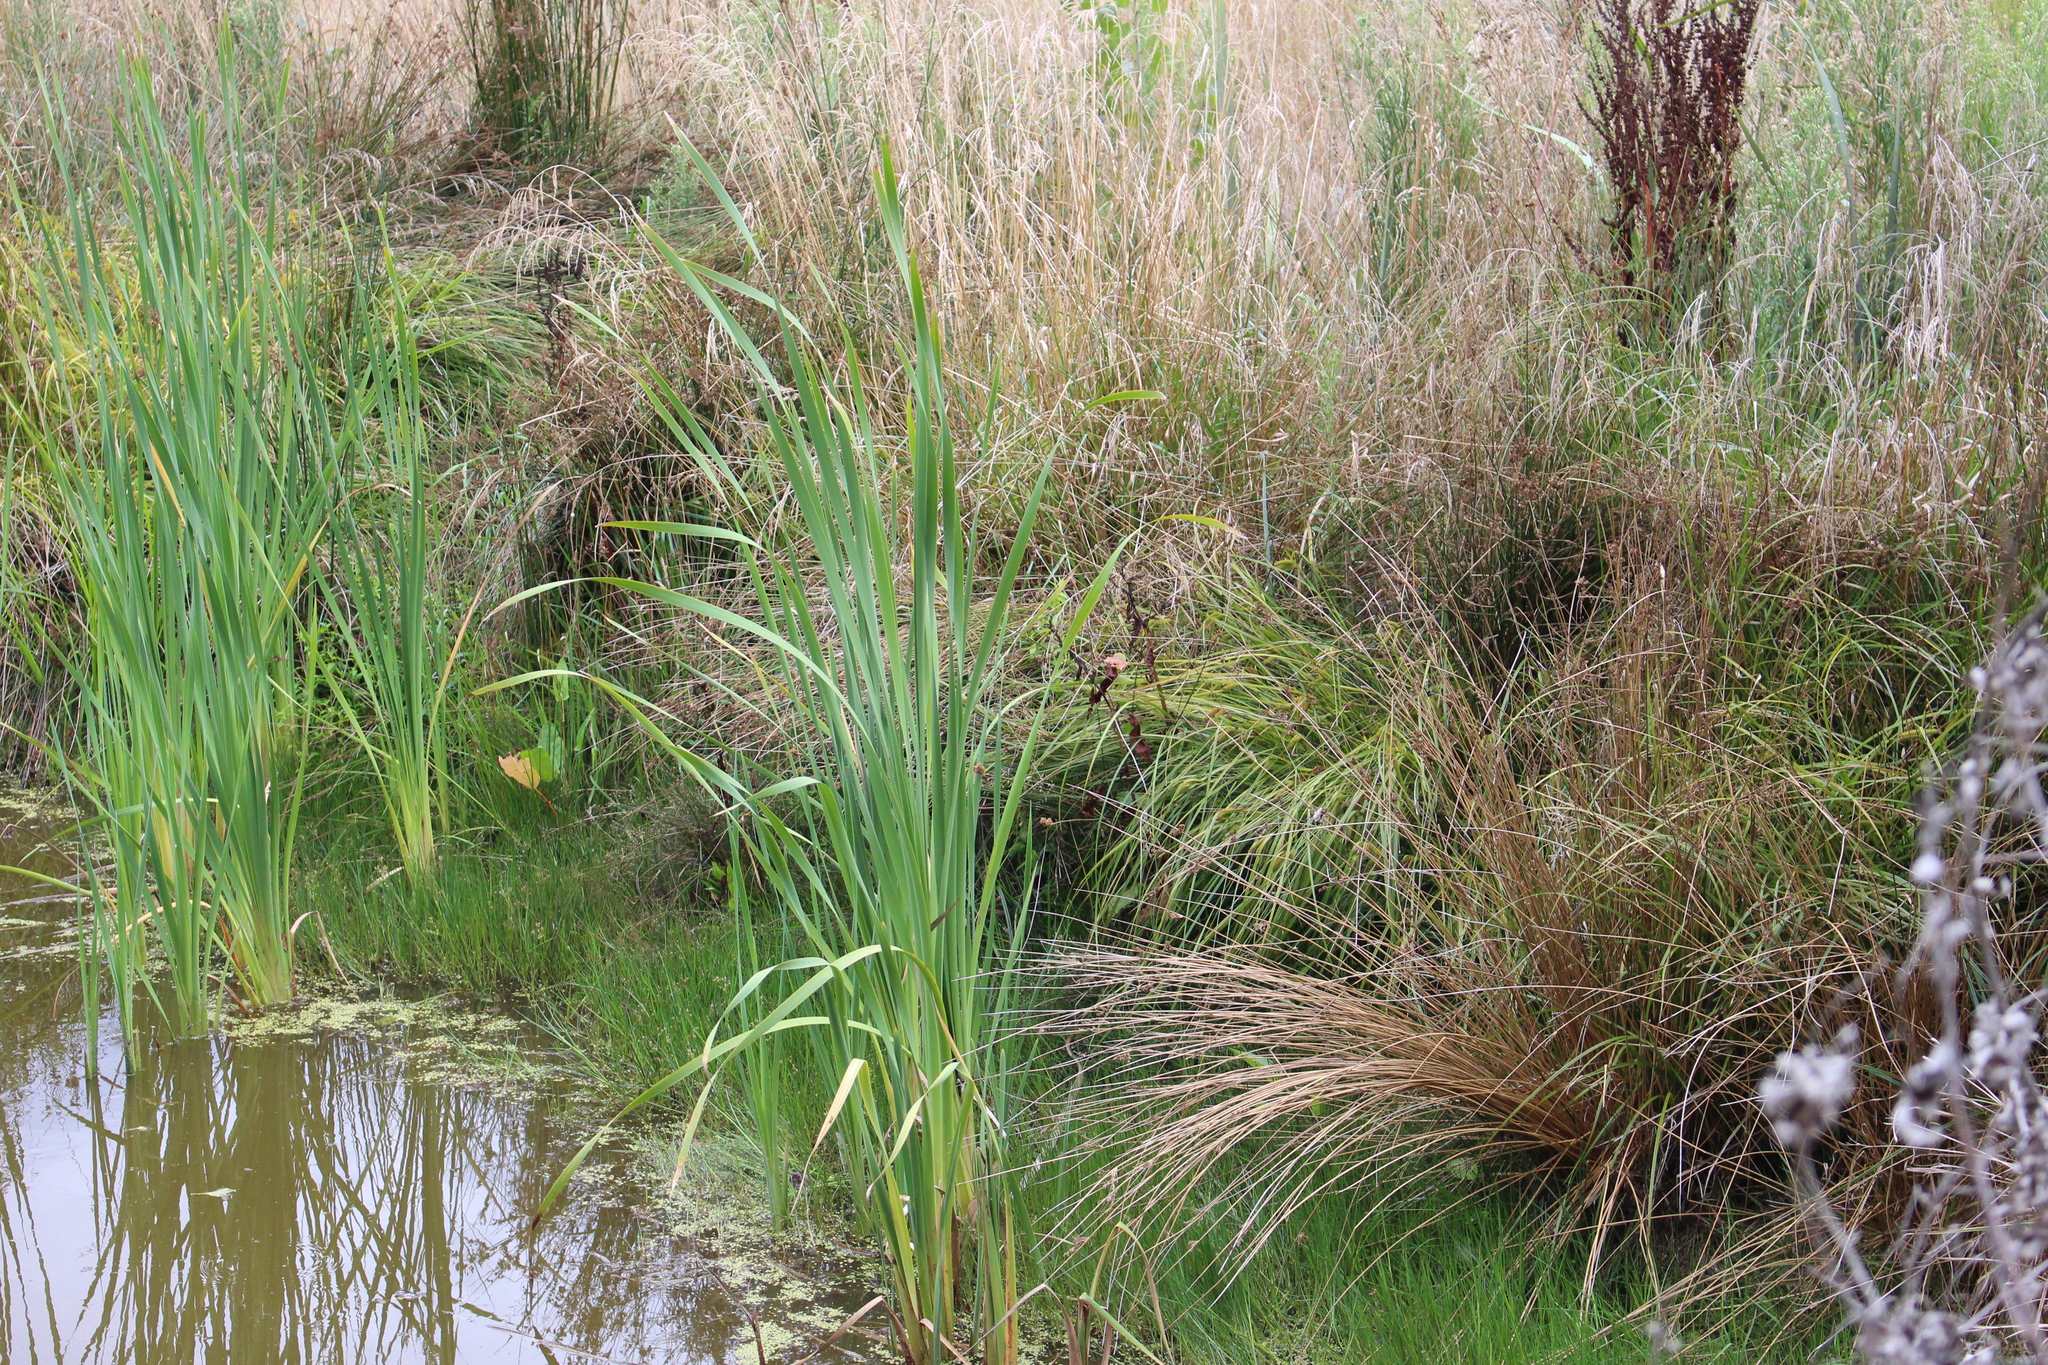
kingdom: Plantae
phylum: Tracheophyta
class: Liliopsida
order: Poales
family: Typhaceae
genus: Typha
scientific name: Typha orientalis
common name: Bullrush
